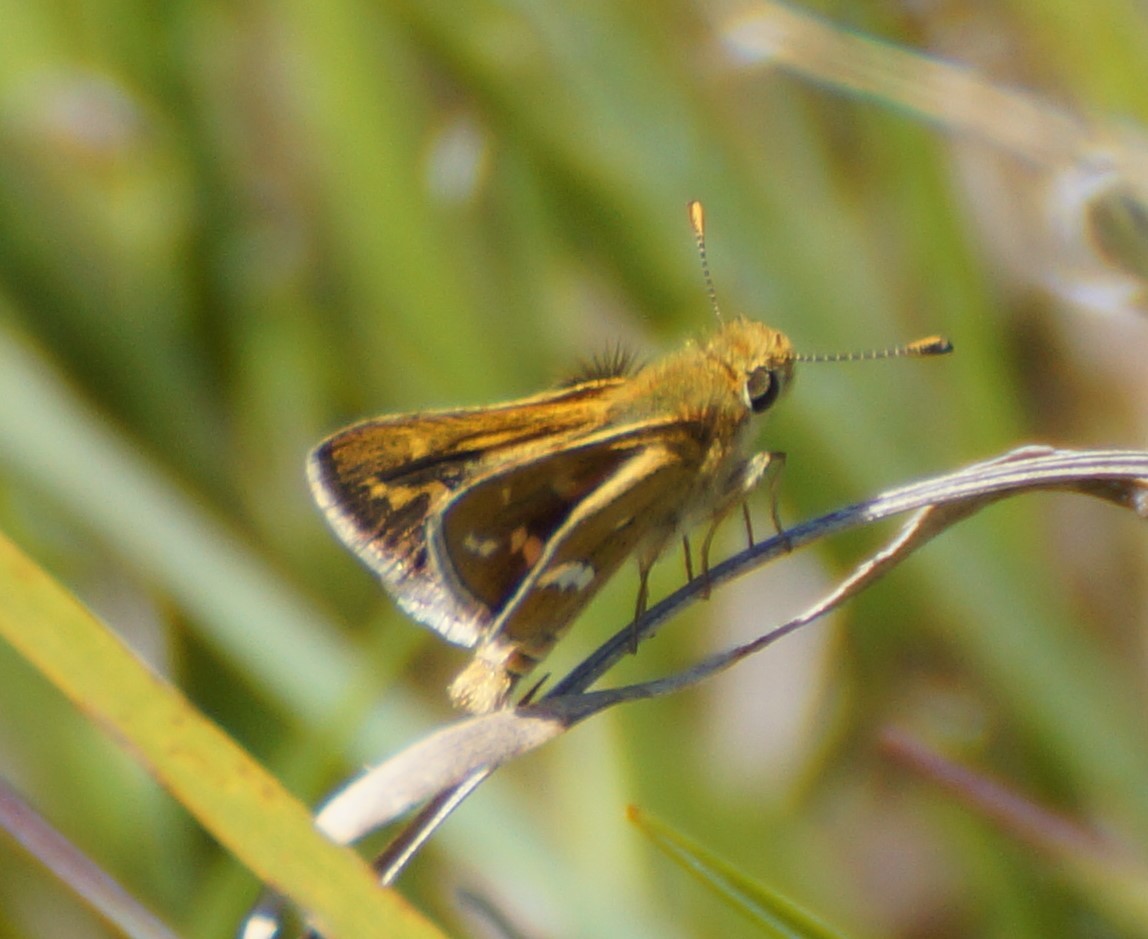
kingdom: Animalia
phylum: Arthropoda
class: Insecta
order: Lepidoptera
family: Hesperiidae
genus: Taractrocera
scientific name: Taractrocera papyria
